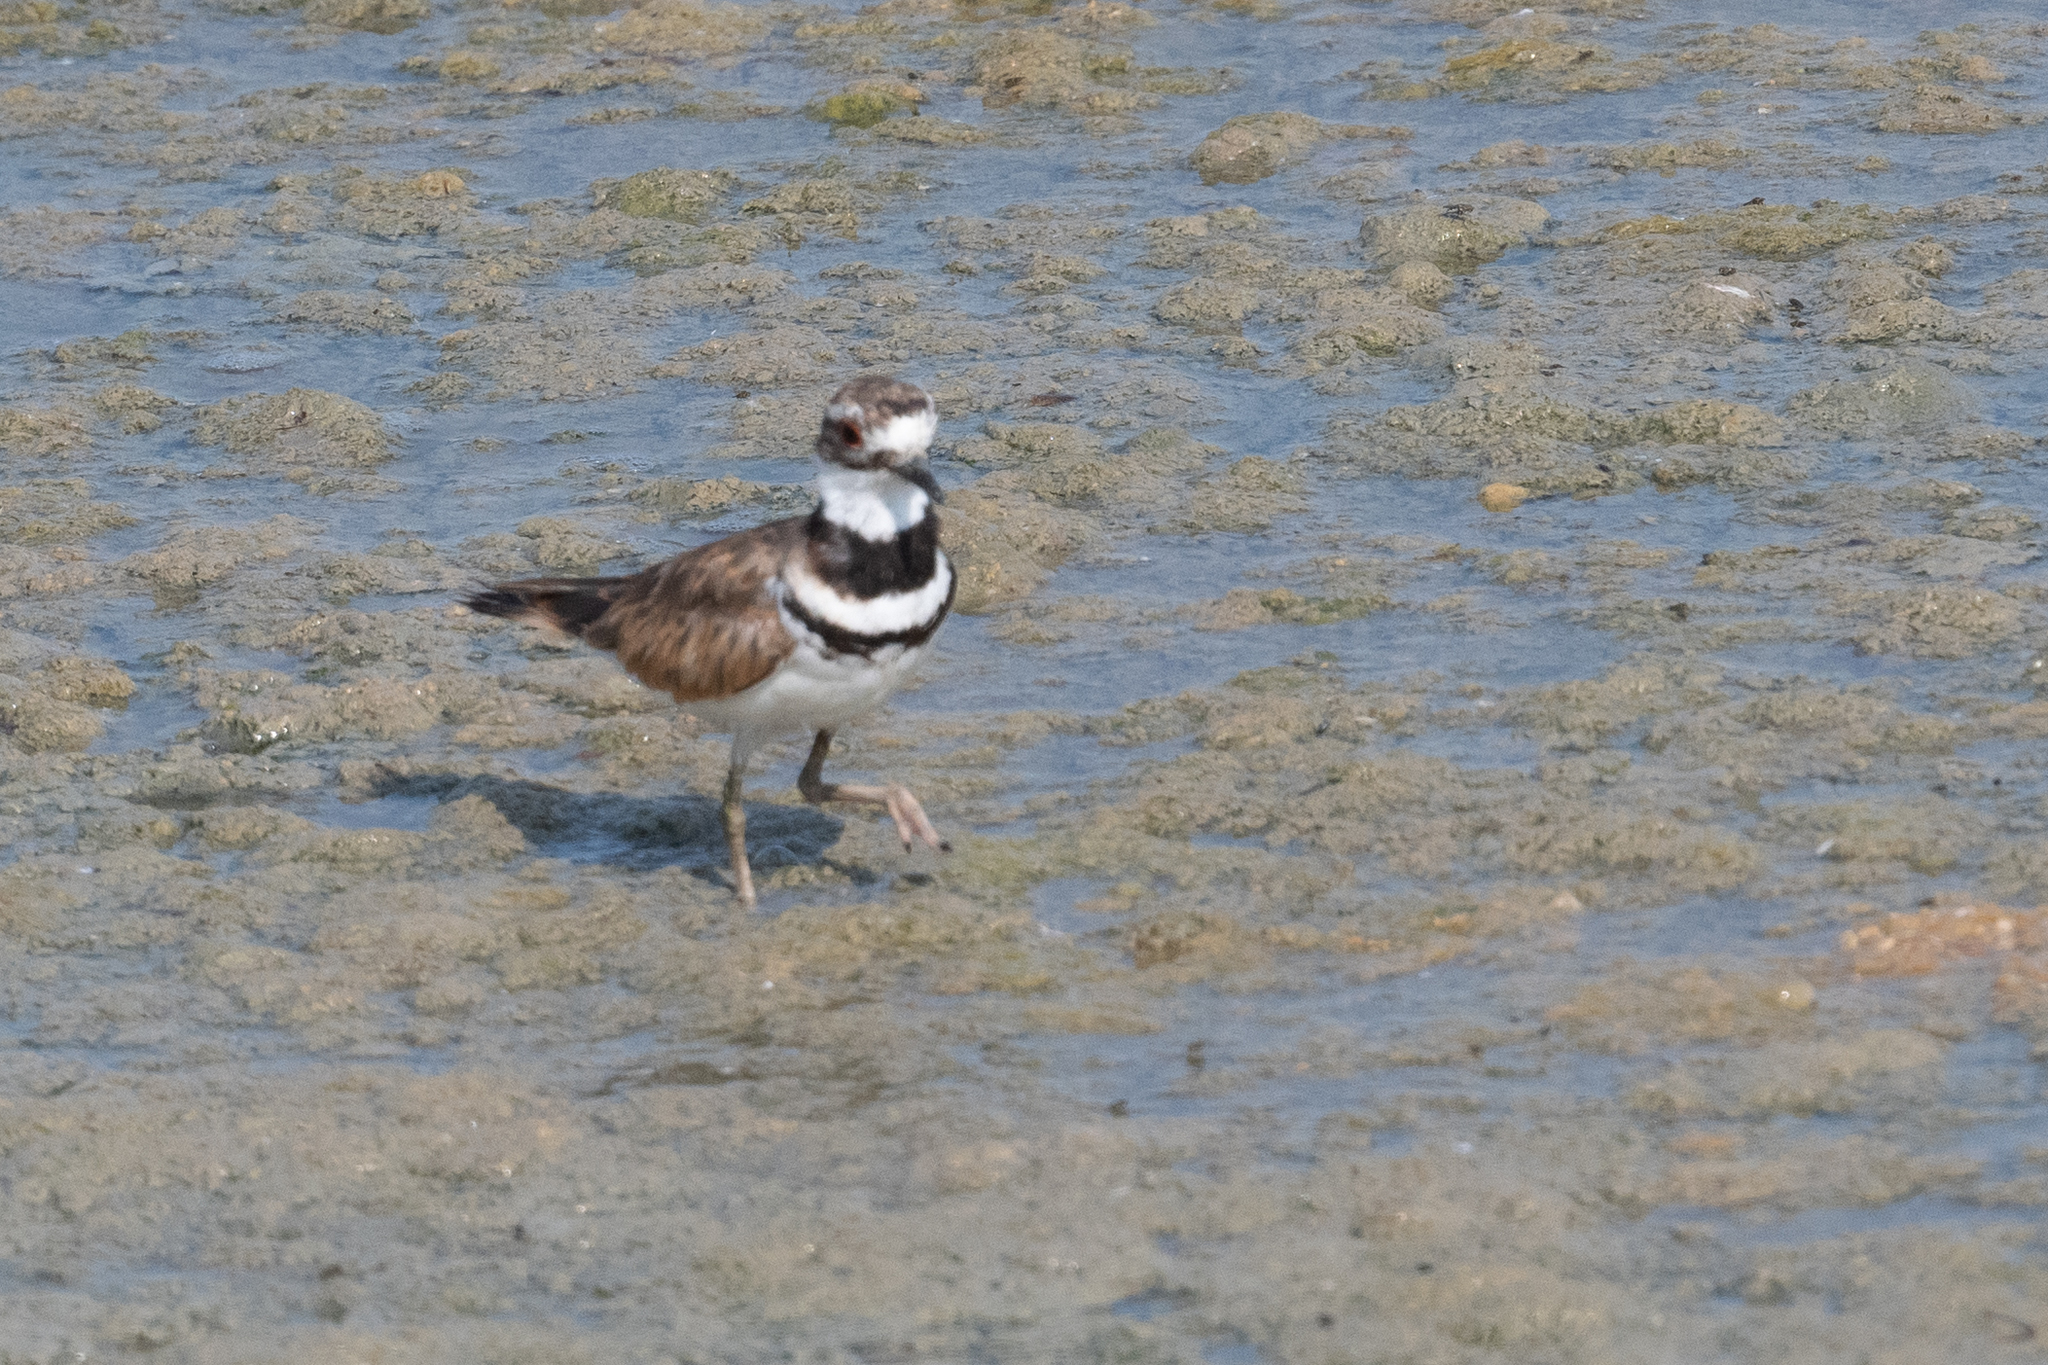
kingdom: Animalia
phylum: Chordata
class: Aves
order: Charadriiformes
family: Charadriidae
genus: Charadrius
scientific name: Charadrius vociferus
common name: Killdeer
